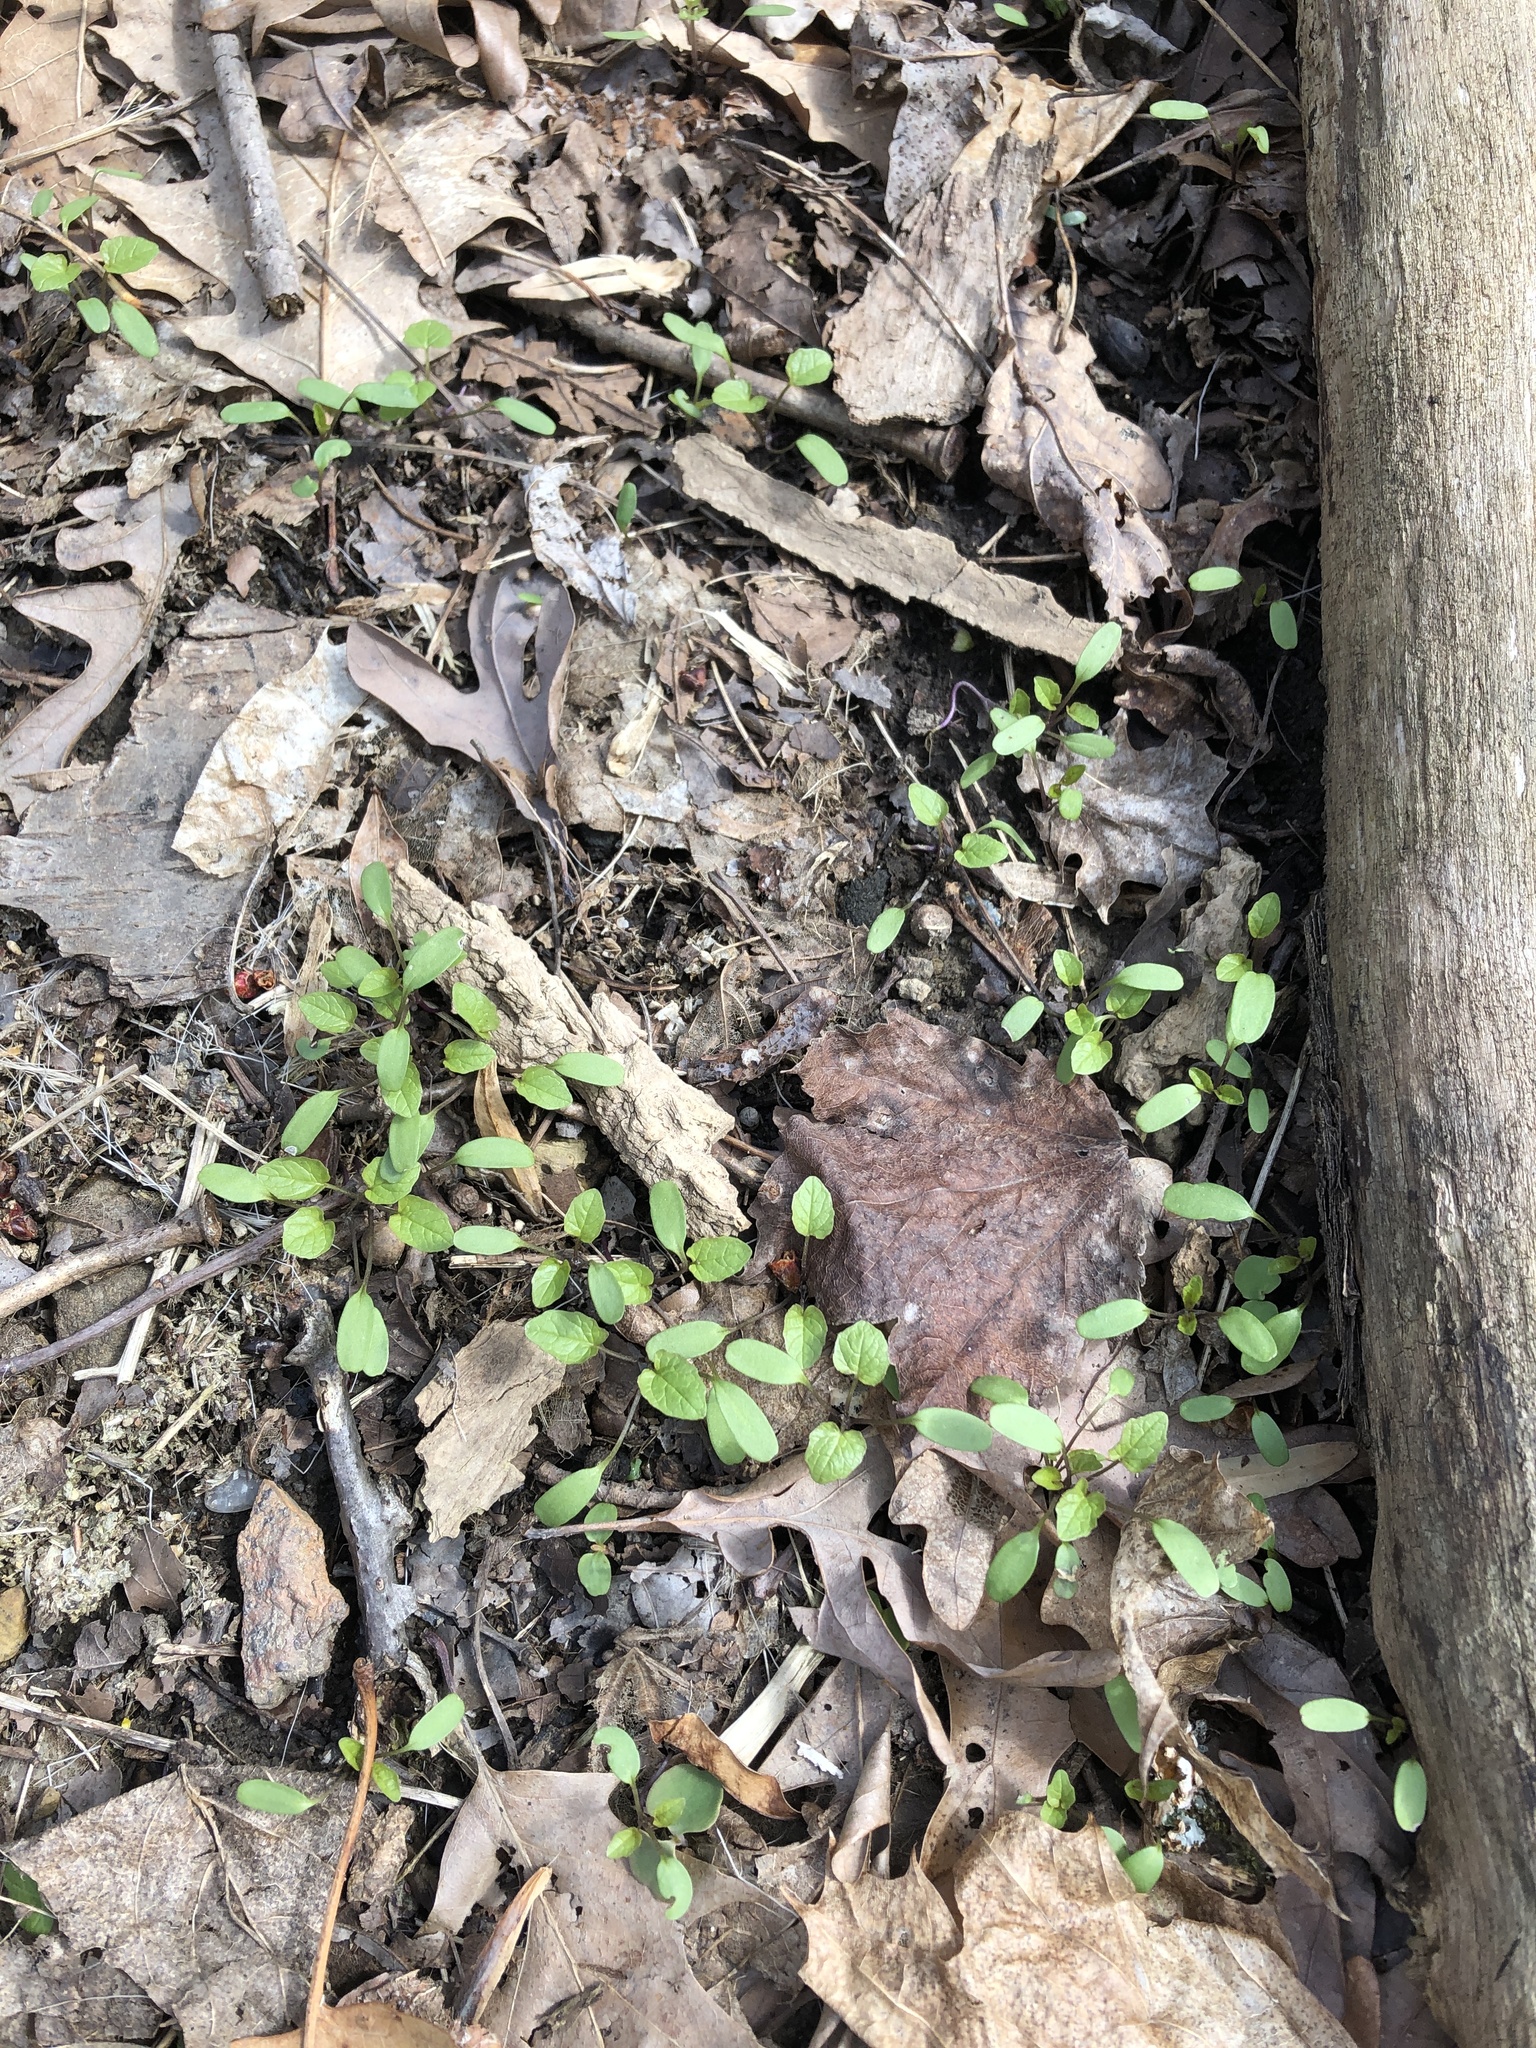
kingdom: Plantae
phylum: Tracheophyta
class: Magnoliopsida
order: Brassicales
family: Brassicaceae
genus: Alliaria
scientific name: Alliaria petiolata
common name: Garlic mustard
